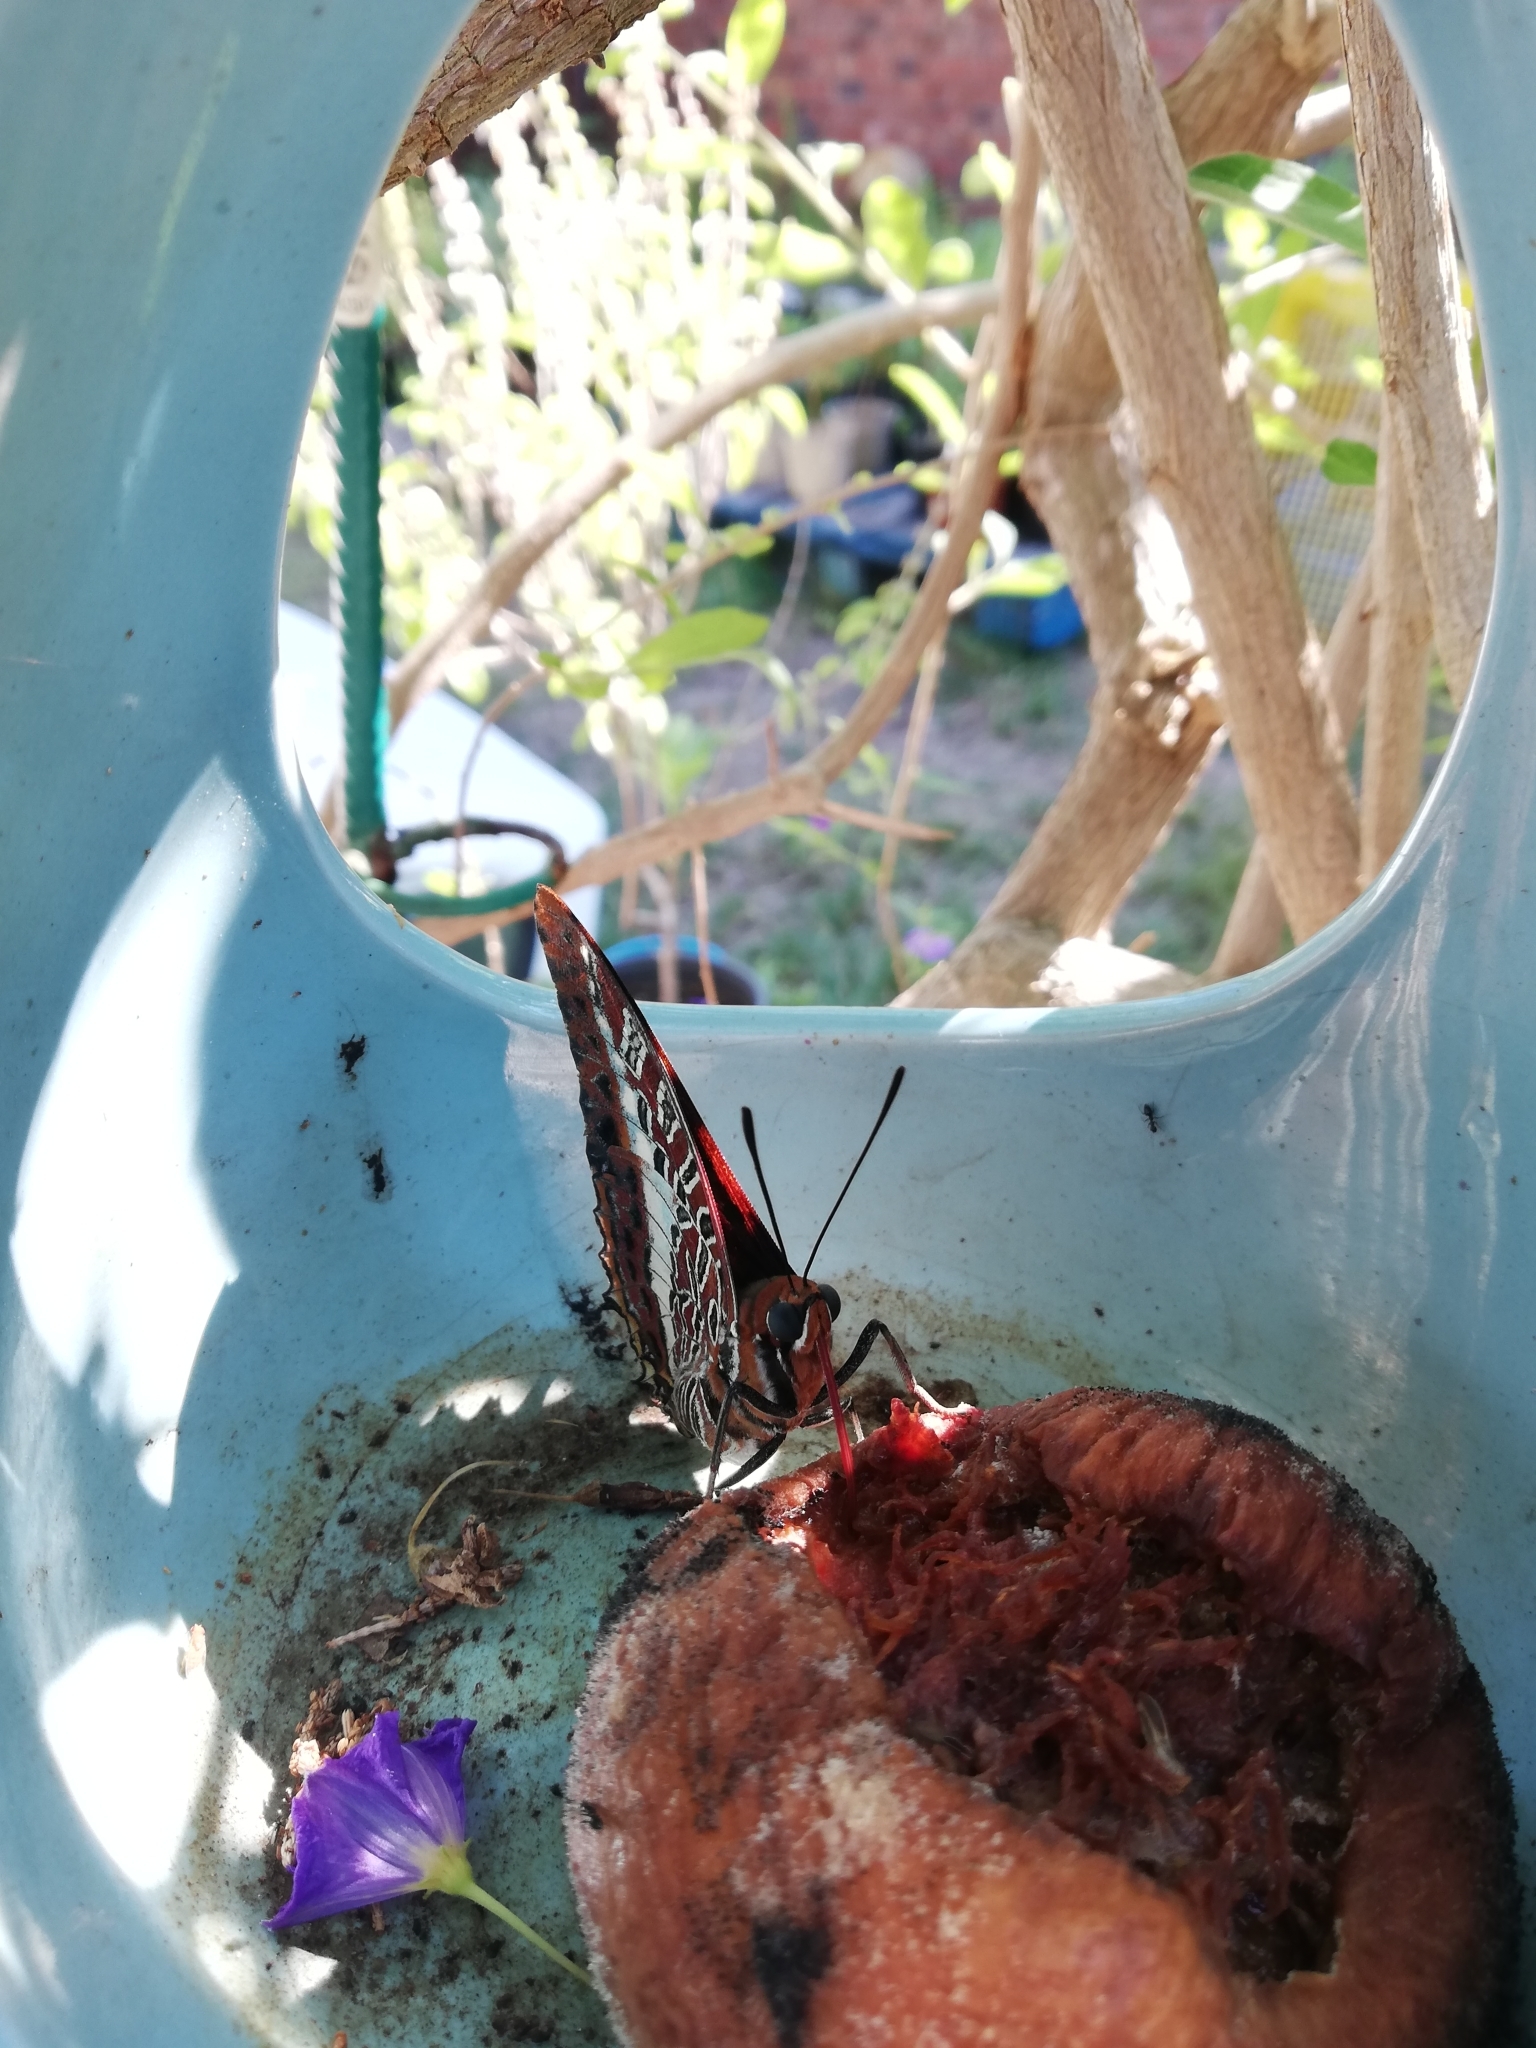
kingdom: Animalia
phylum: Arthropoda
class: Insecta
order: Lepidoptera
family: Nymphalidae
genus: Charaxes
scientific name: Charaxes brutus
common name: White-barred charaxes
